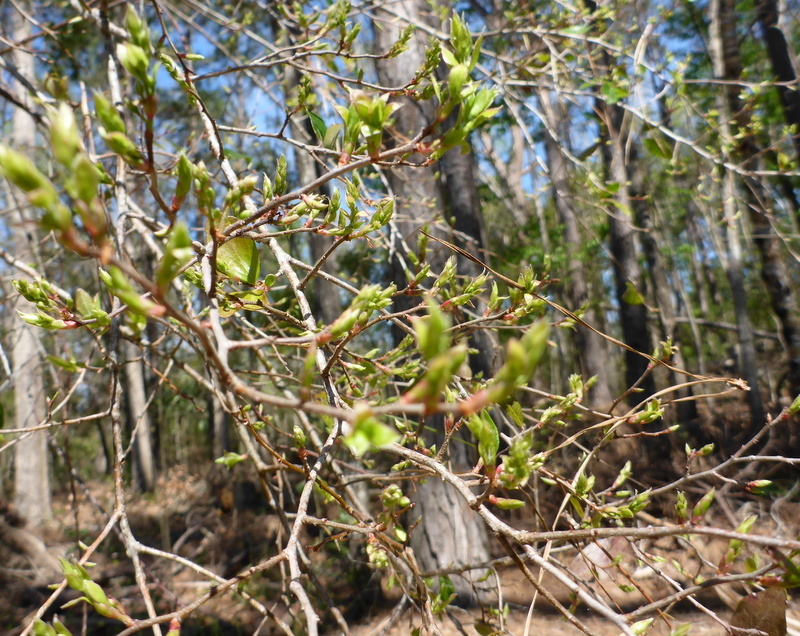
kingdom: Plantae
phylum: Tracheophyta
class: Magnoliopsida
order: Ericales
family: Ericaceae
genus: Vaccinium
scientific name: Vaccinium arboreum
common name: Farkleberry
